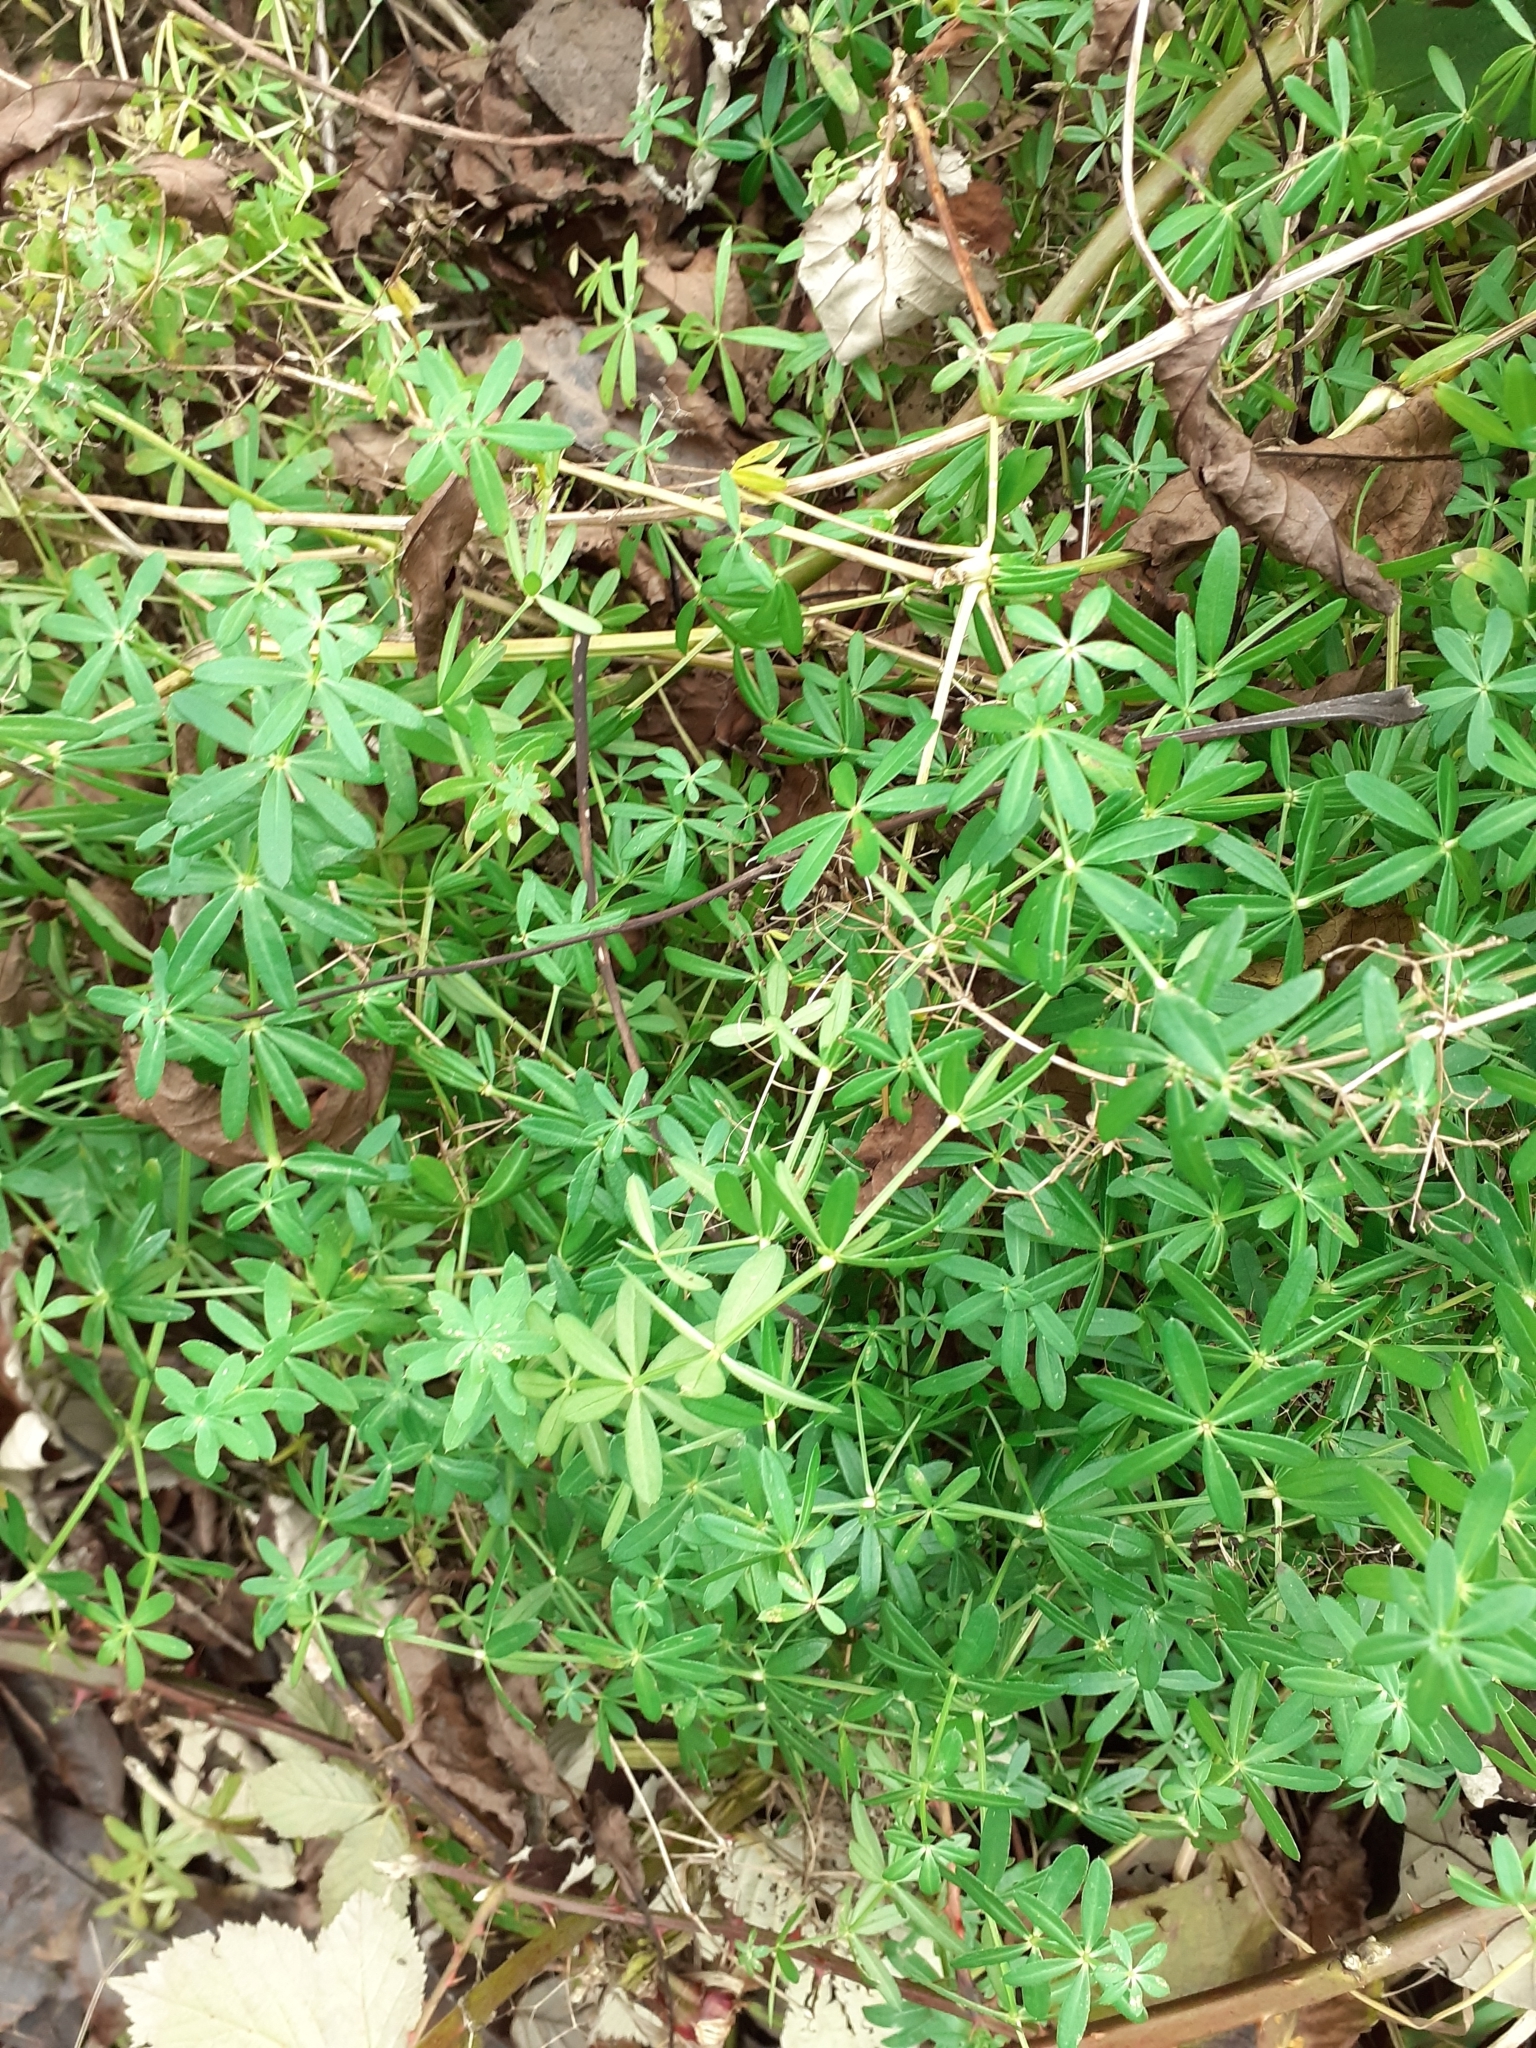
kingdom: Plantae
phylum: Tracheophyta
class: Magnoliopsida
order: Gentianales
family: Rubiaceae
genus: Galium
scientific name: Galium aparine
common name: Cleavers
